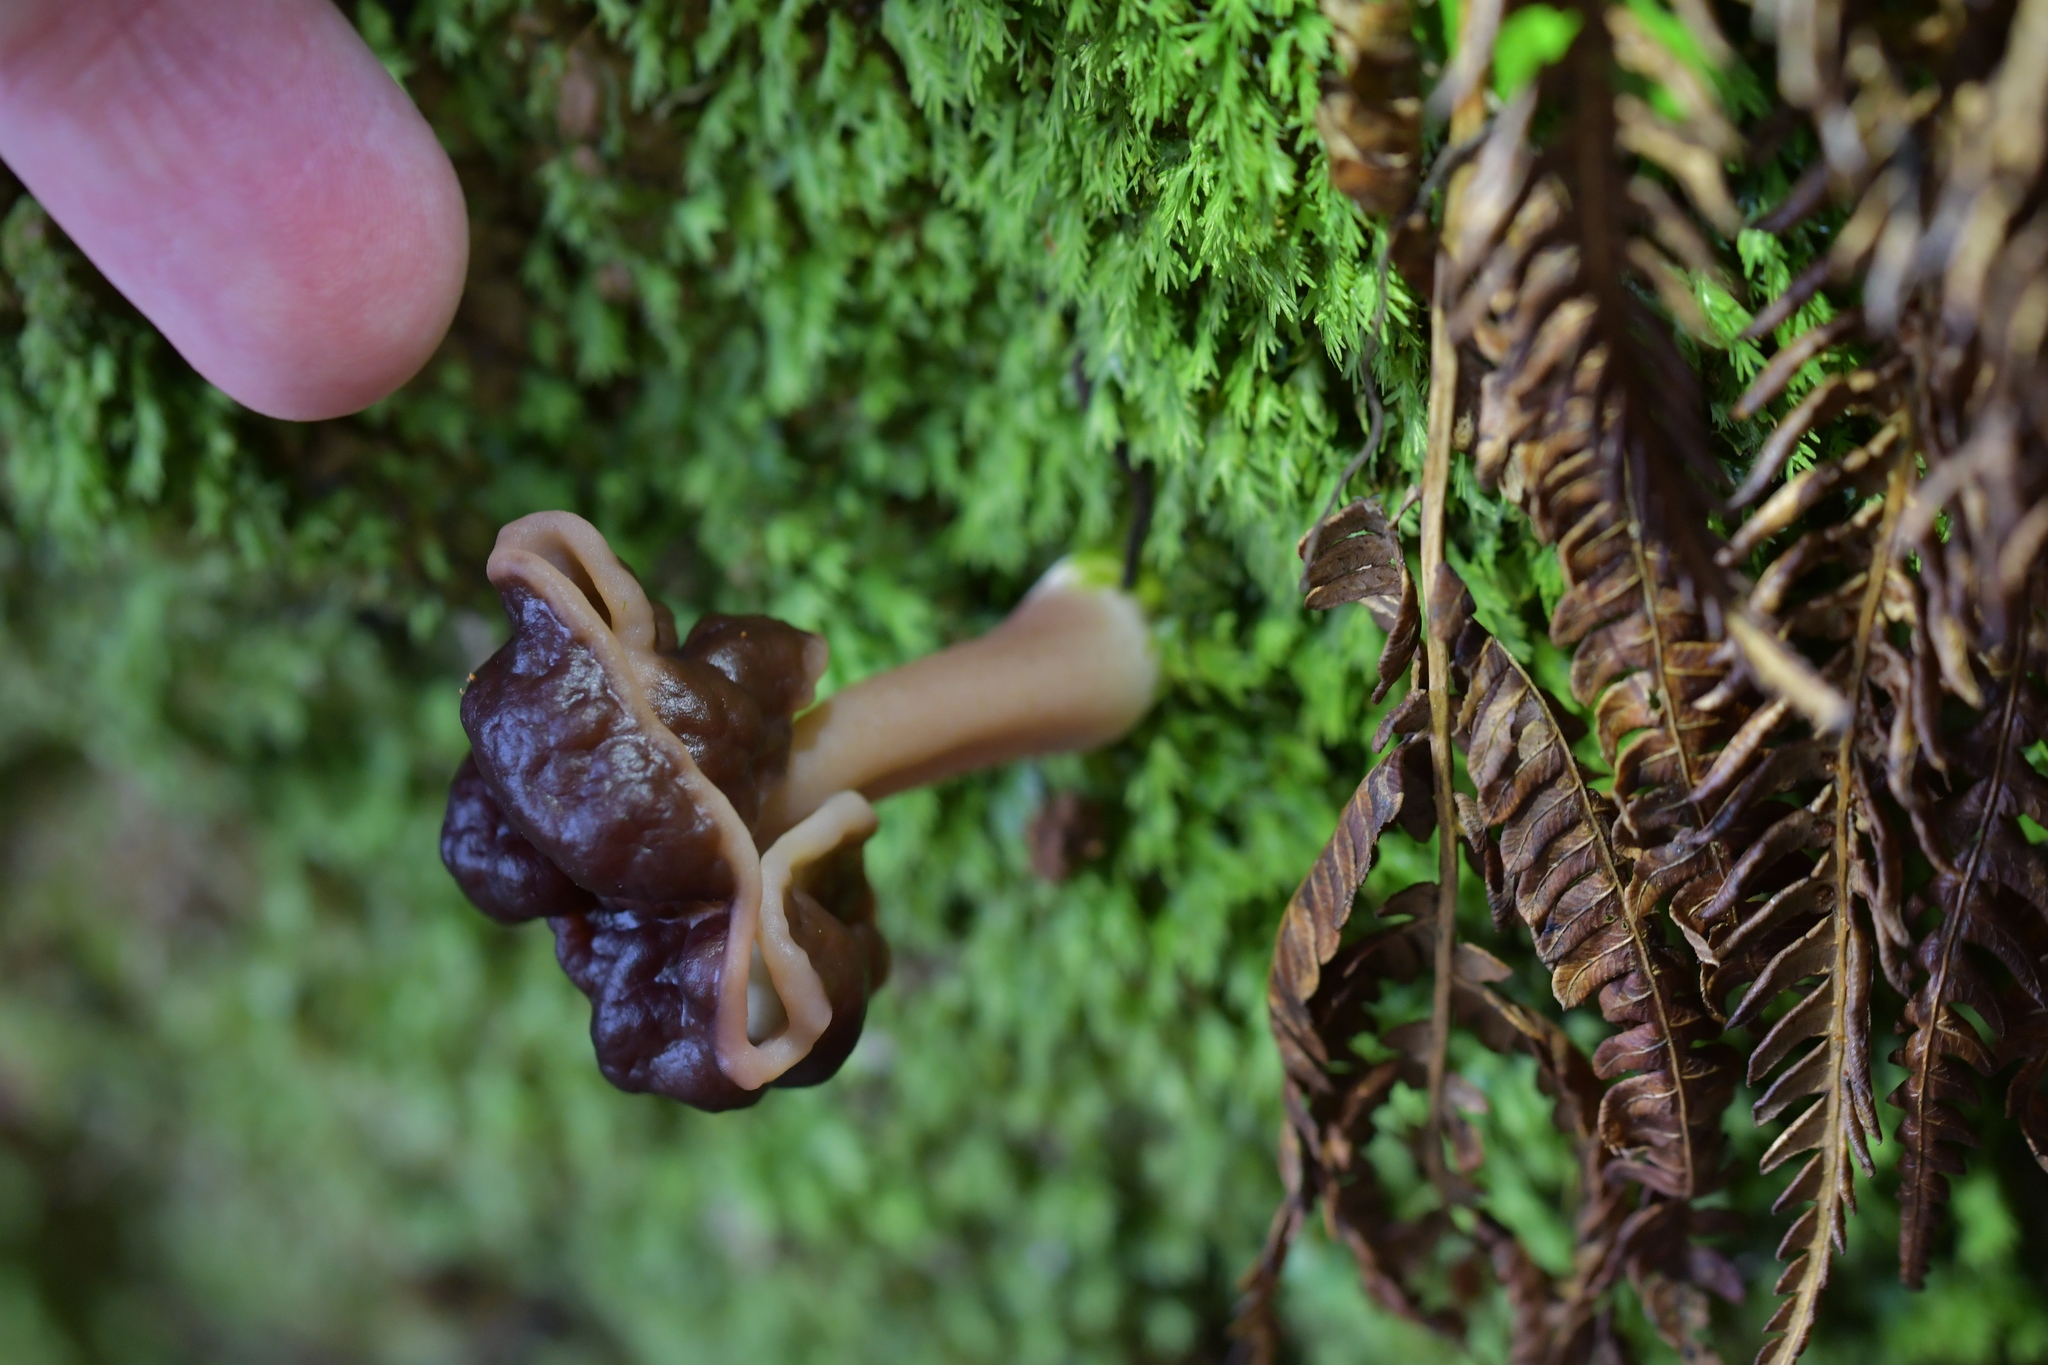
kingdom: Fungi
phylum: Ascomycota
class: Pezizomycetes
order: Pezizales
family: Discinaceae
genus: Gyromitra
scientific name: Gyromitra tasmanica
